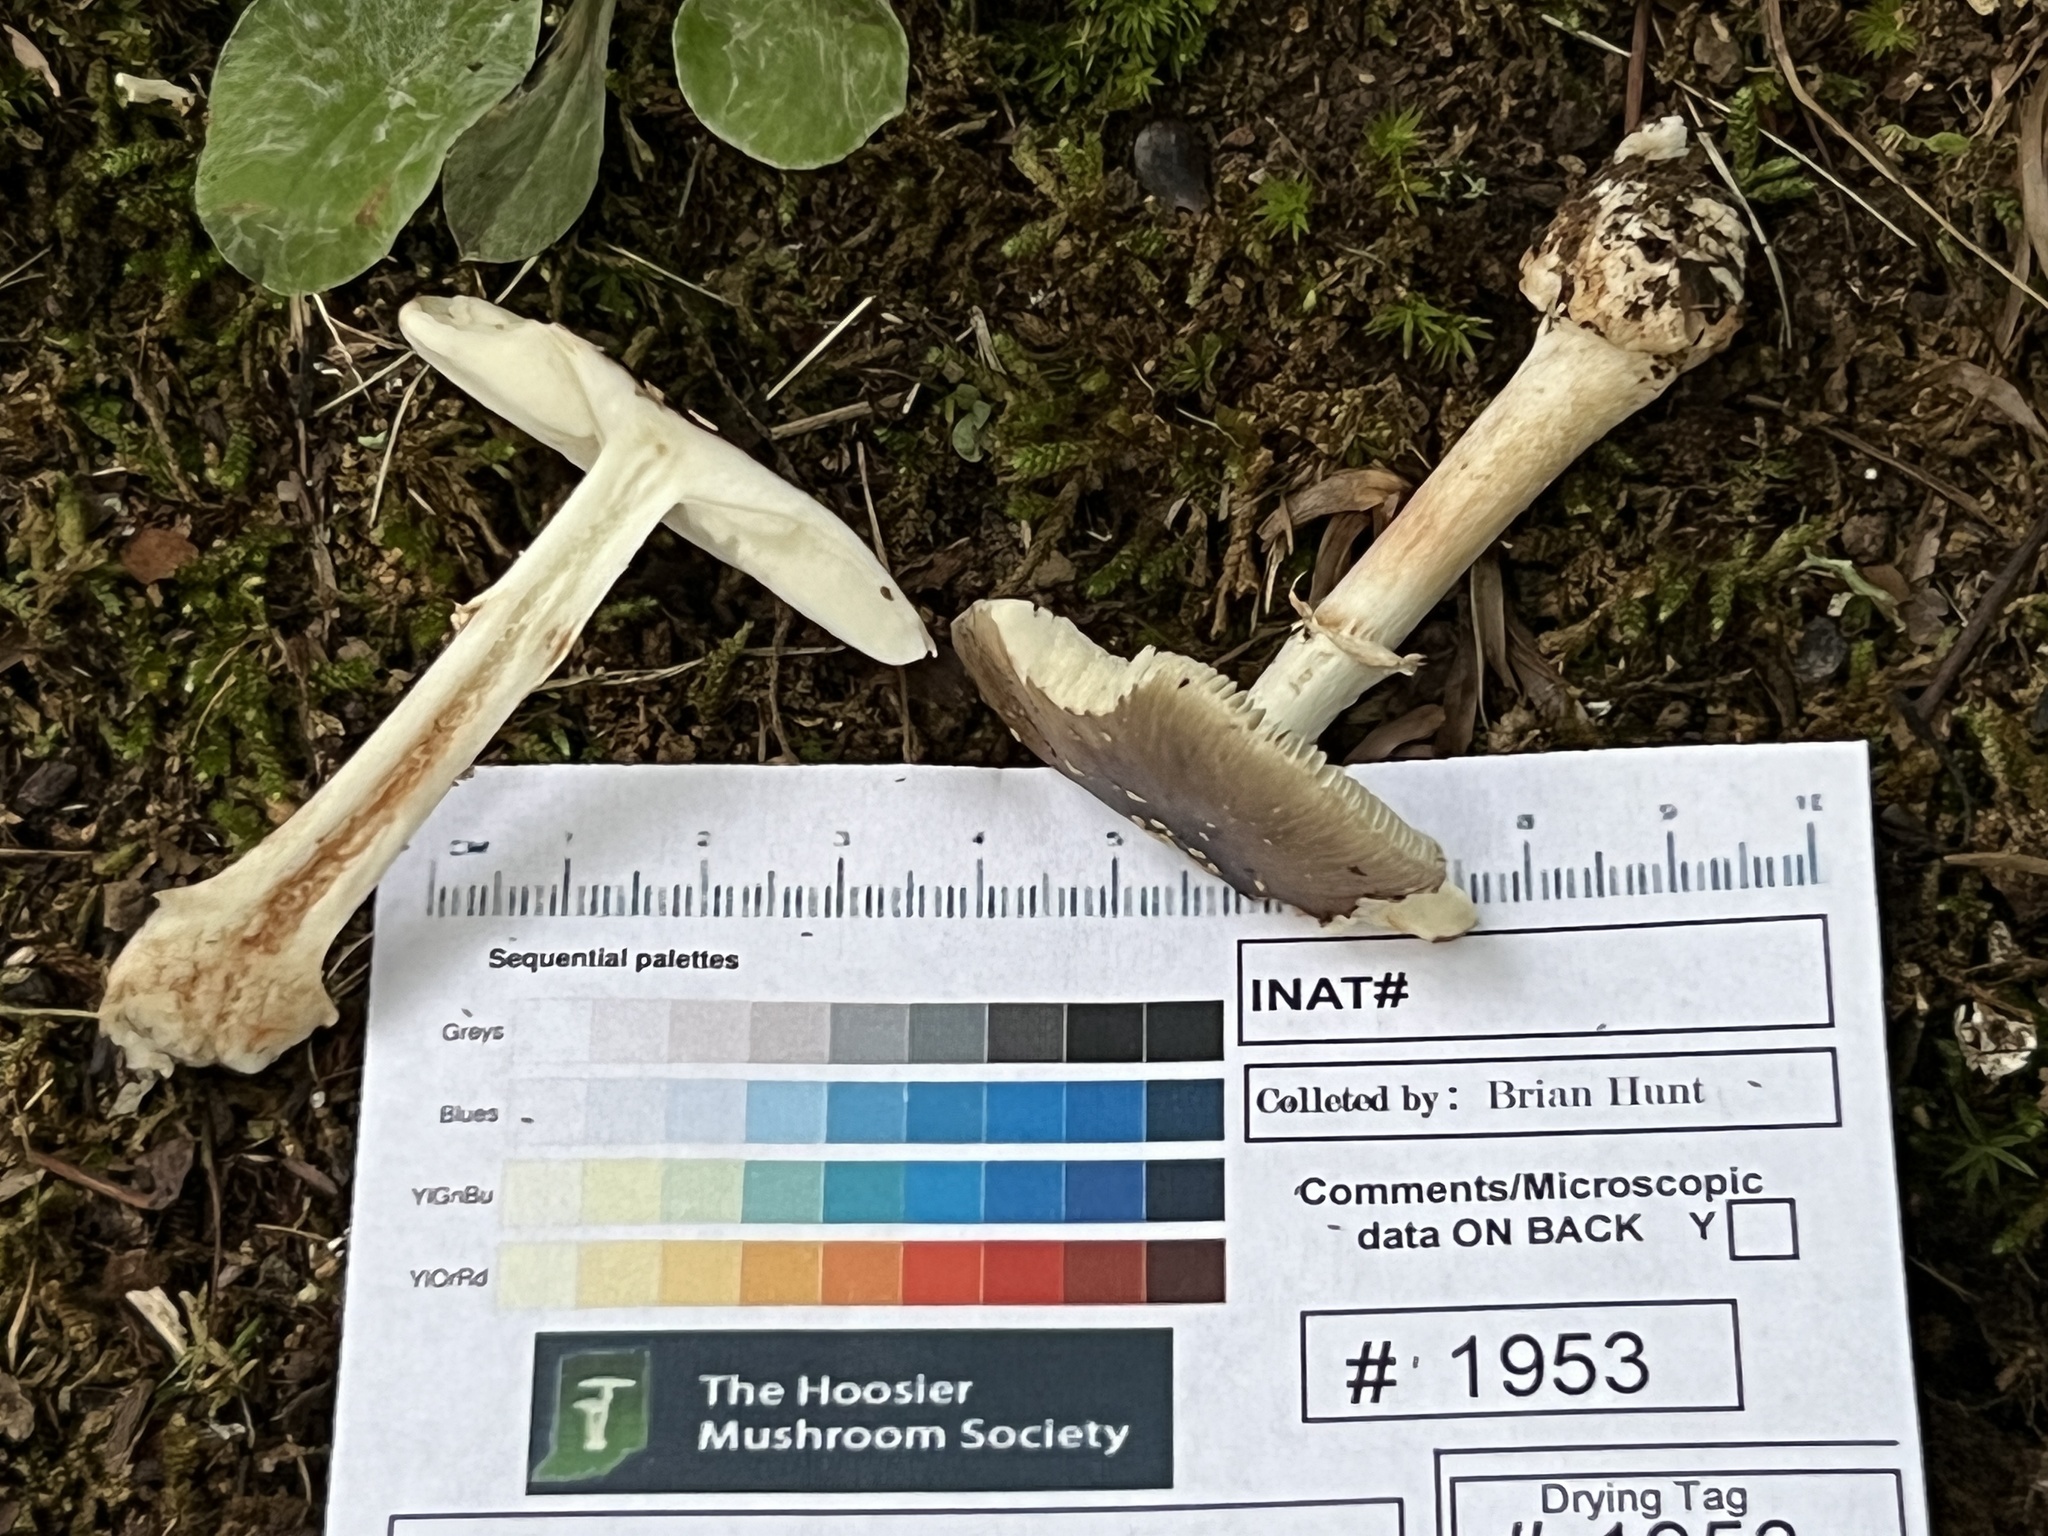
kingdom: Fungi
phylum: Basidiomycota
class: Agaricomycetes
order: Agaricales
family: Amanitaceae
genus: Amanita
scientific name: Amanita brunnescens
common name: Brown american star-footed amanita
